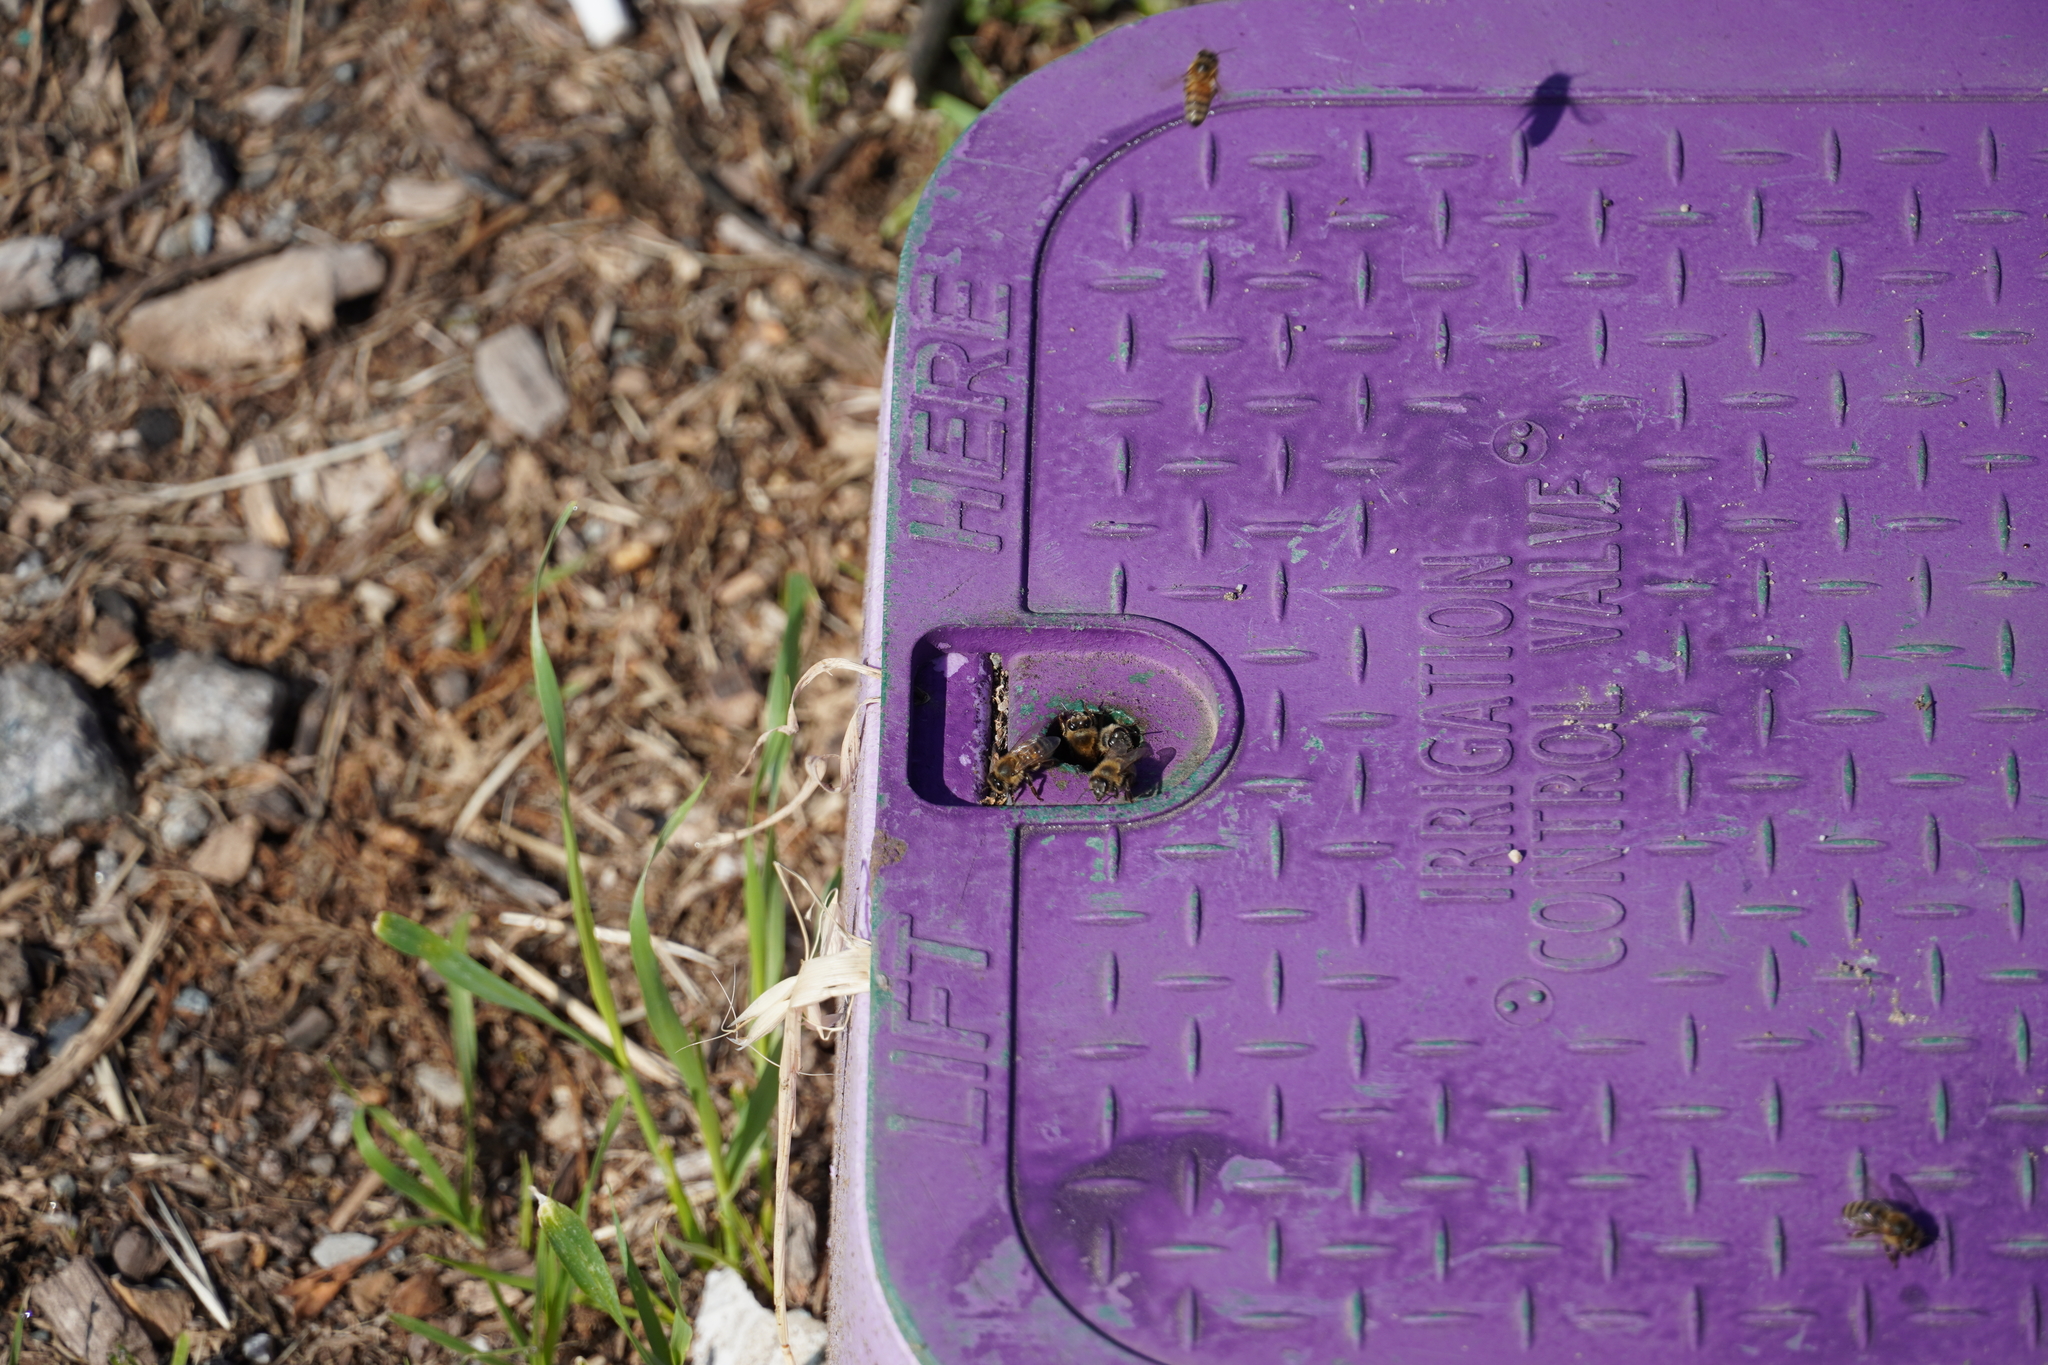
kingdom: Animalia
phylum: Arthropoda
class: Insecta
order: Hymenoptera
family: Apidae
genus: Apis
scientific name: Apis mellifera
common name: Honey bee
